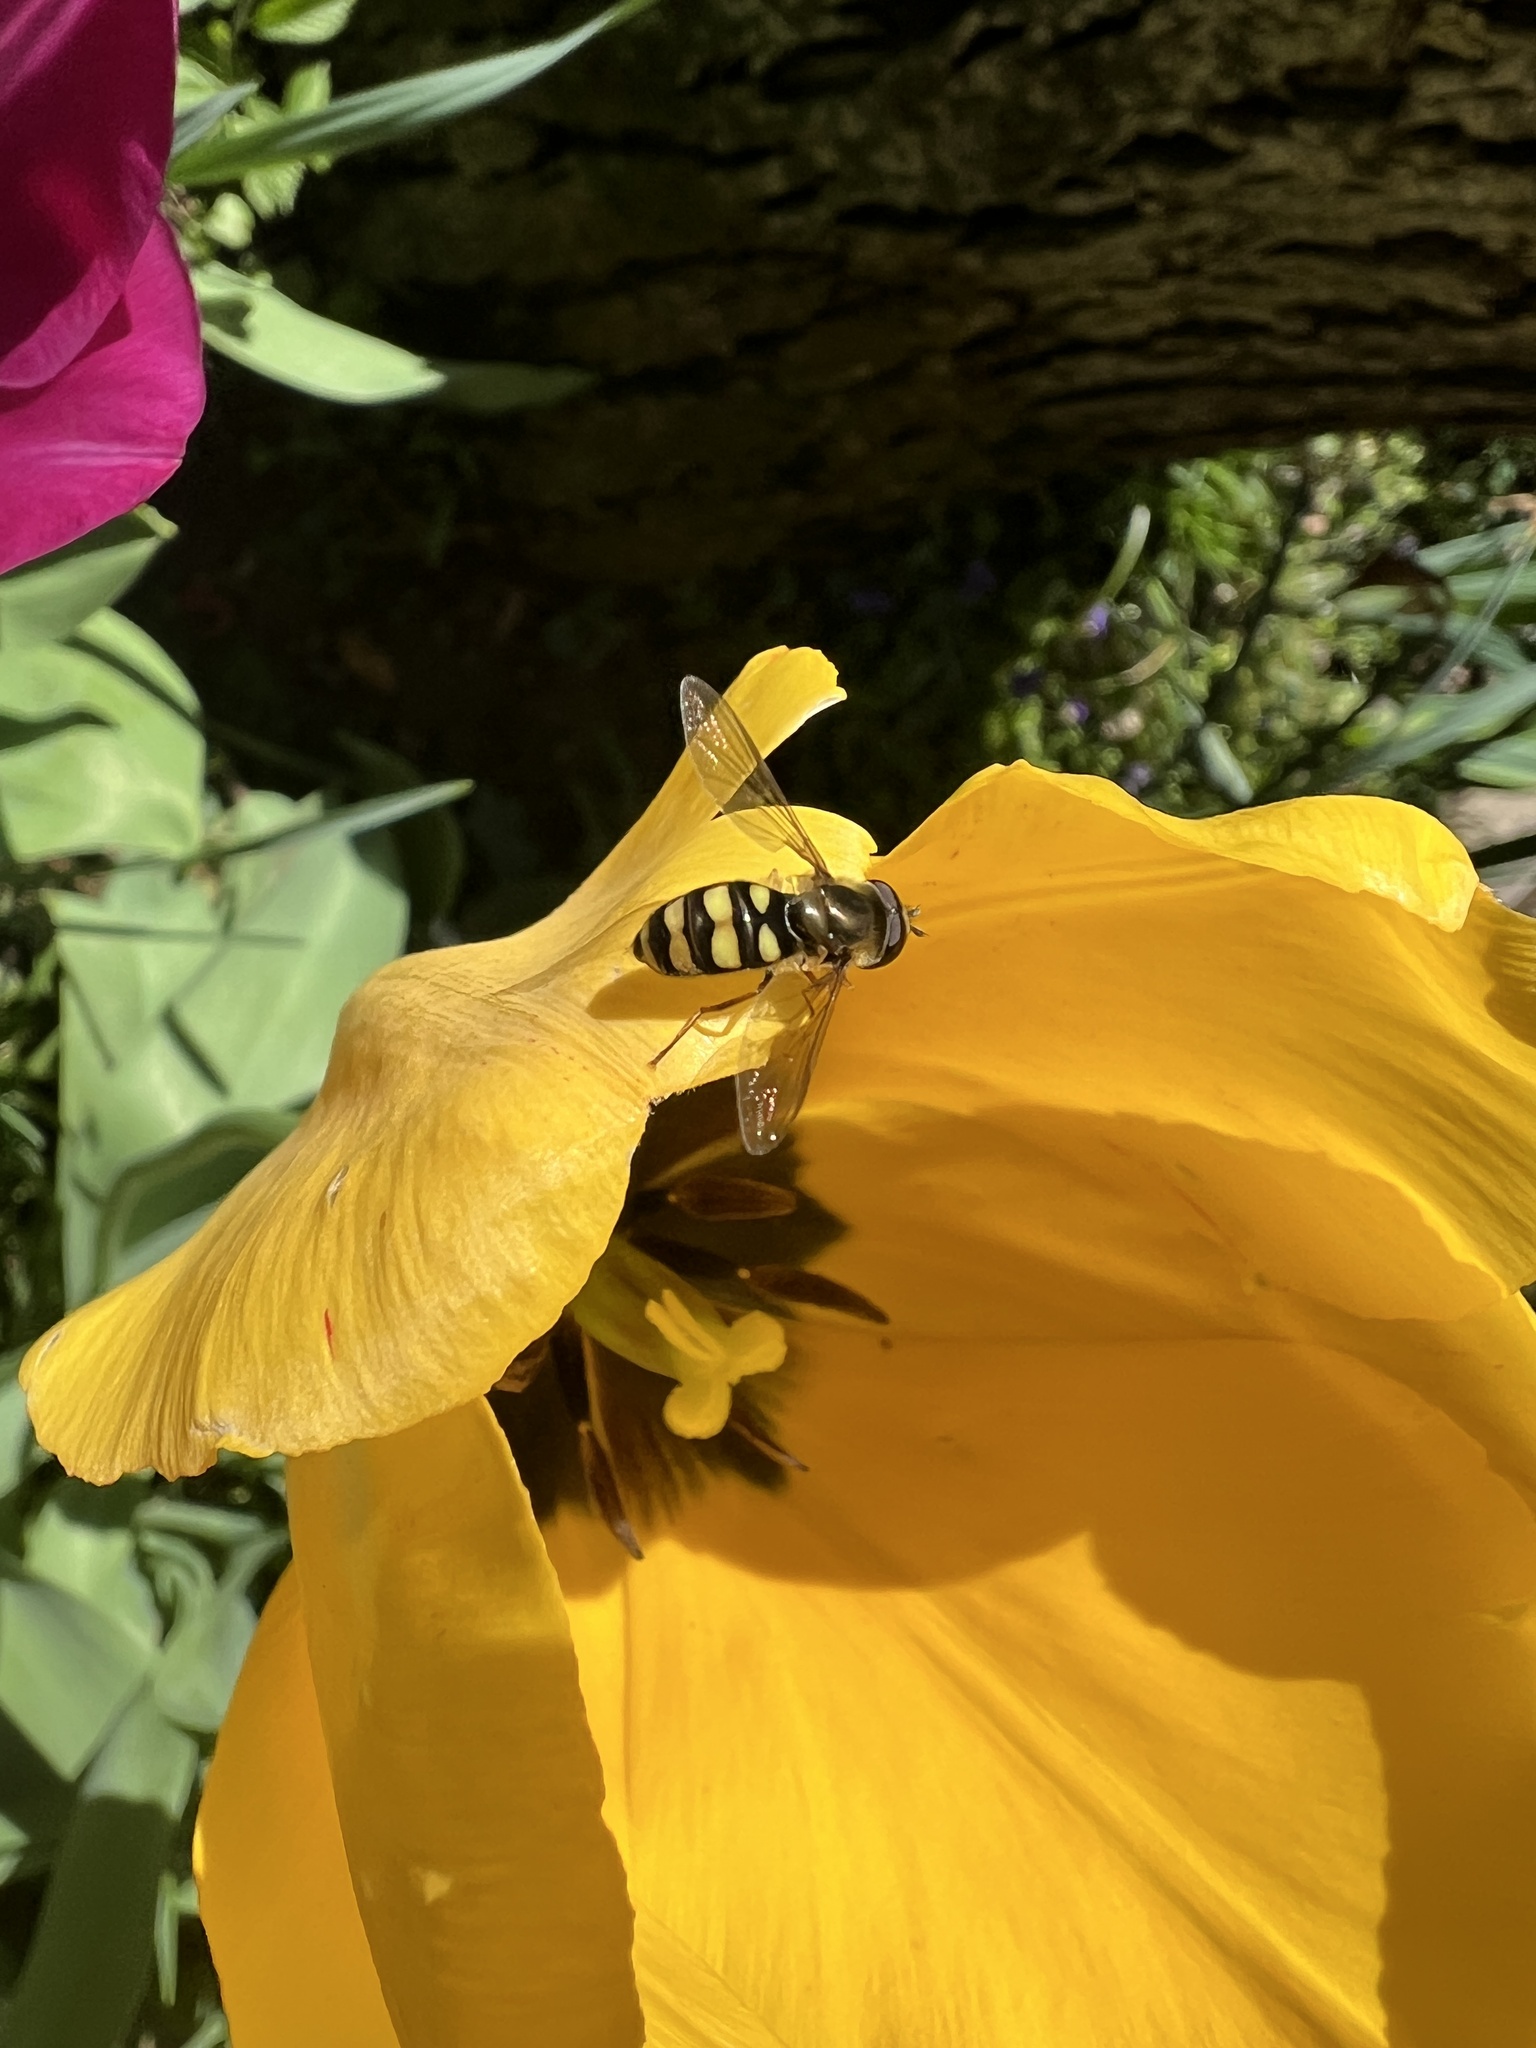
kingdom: Animalia
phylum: Arthropoda
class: Insecta
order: Diptera
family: Syrphidae
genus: Eupeodes
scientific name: Eupeodes
